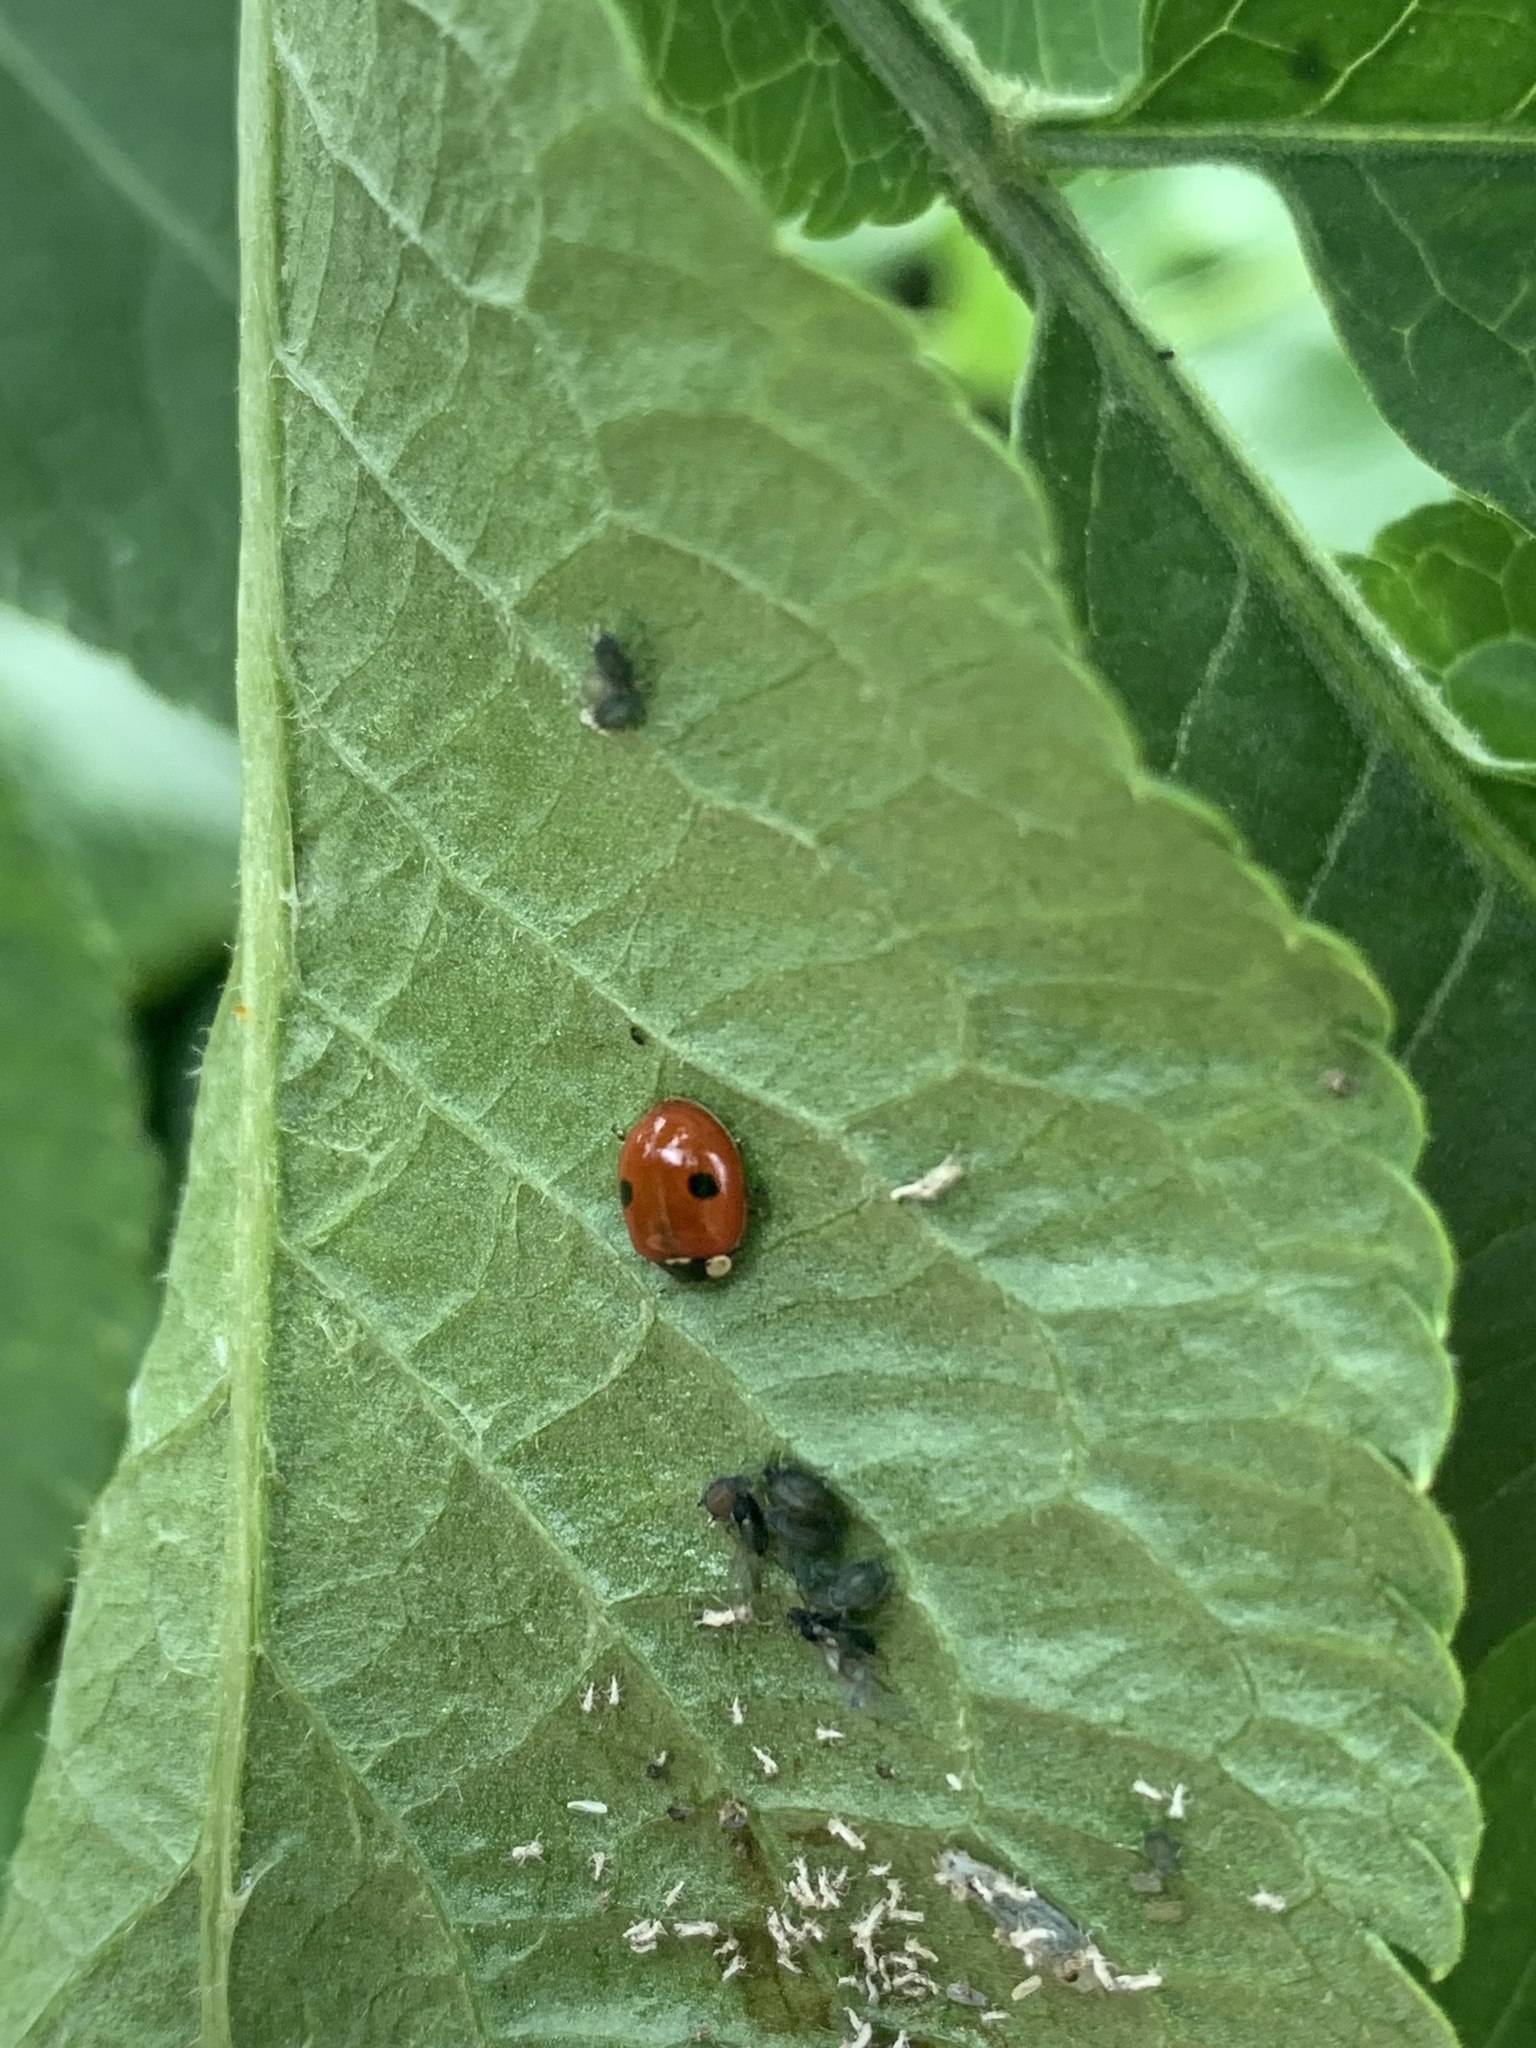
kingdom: Animalia
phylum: Arthropoda
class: Insecta
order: Coleoptera
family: Coccinellidae
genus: Adalia
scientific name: Adalia bipunctata
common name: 2-spot ladybird
